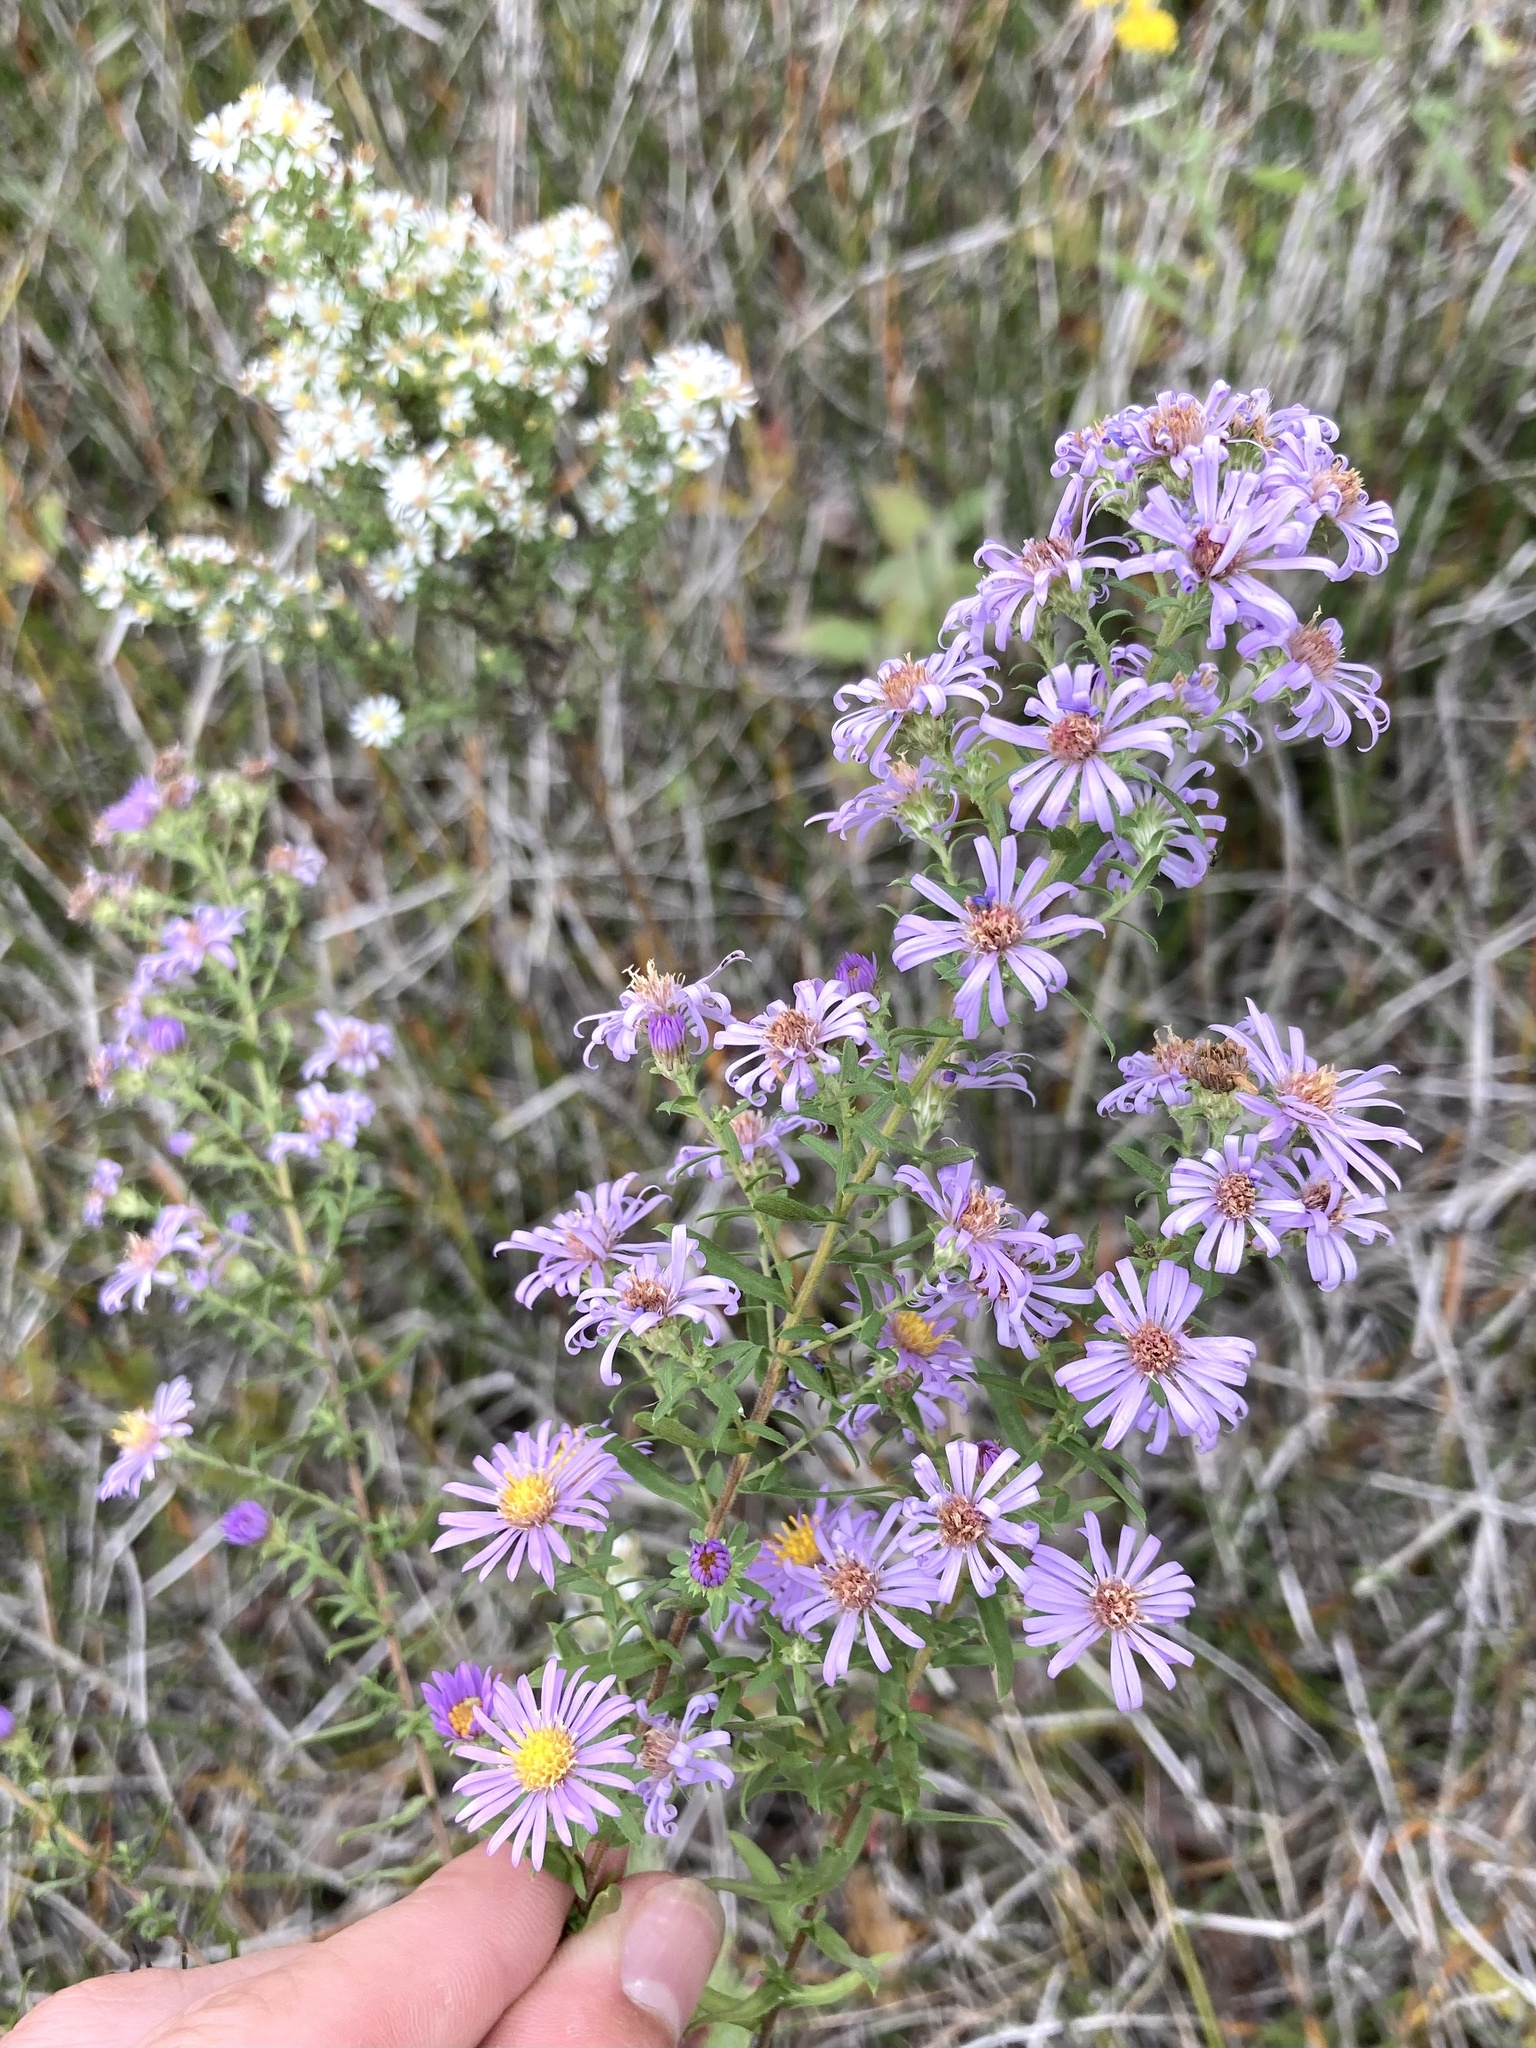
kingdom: Plantae
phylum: Tracheophyta
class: Magnoliopsida
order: Asterales
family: Asteraceae
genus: Symphyotrichum
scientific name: Symphyotrichum amethystinum
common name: Amethyst aster
